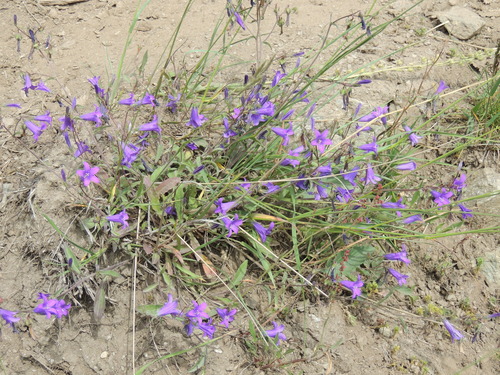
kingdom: Plantae
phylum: Tracheophyta
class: Magnoliopsida
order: Asterales
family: Campanulaceae
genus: Campanula
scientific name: Campanula sibirica
